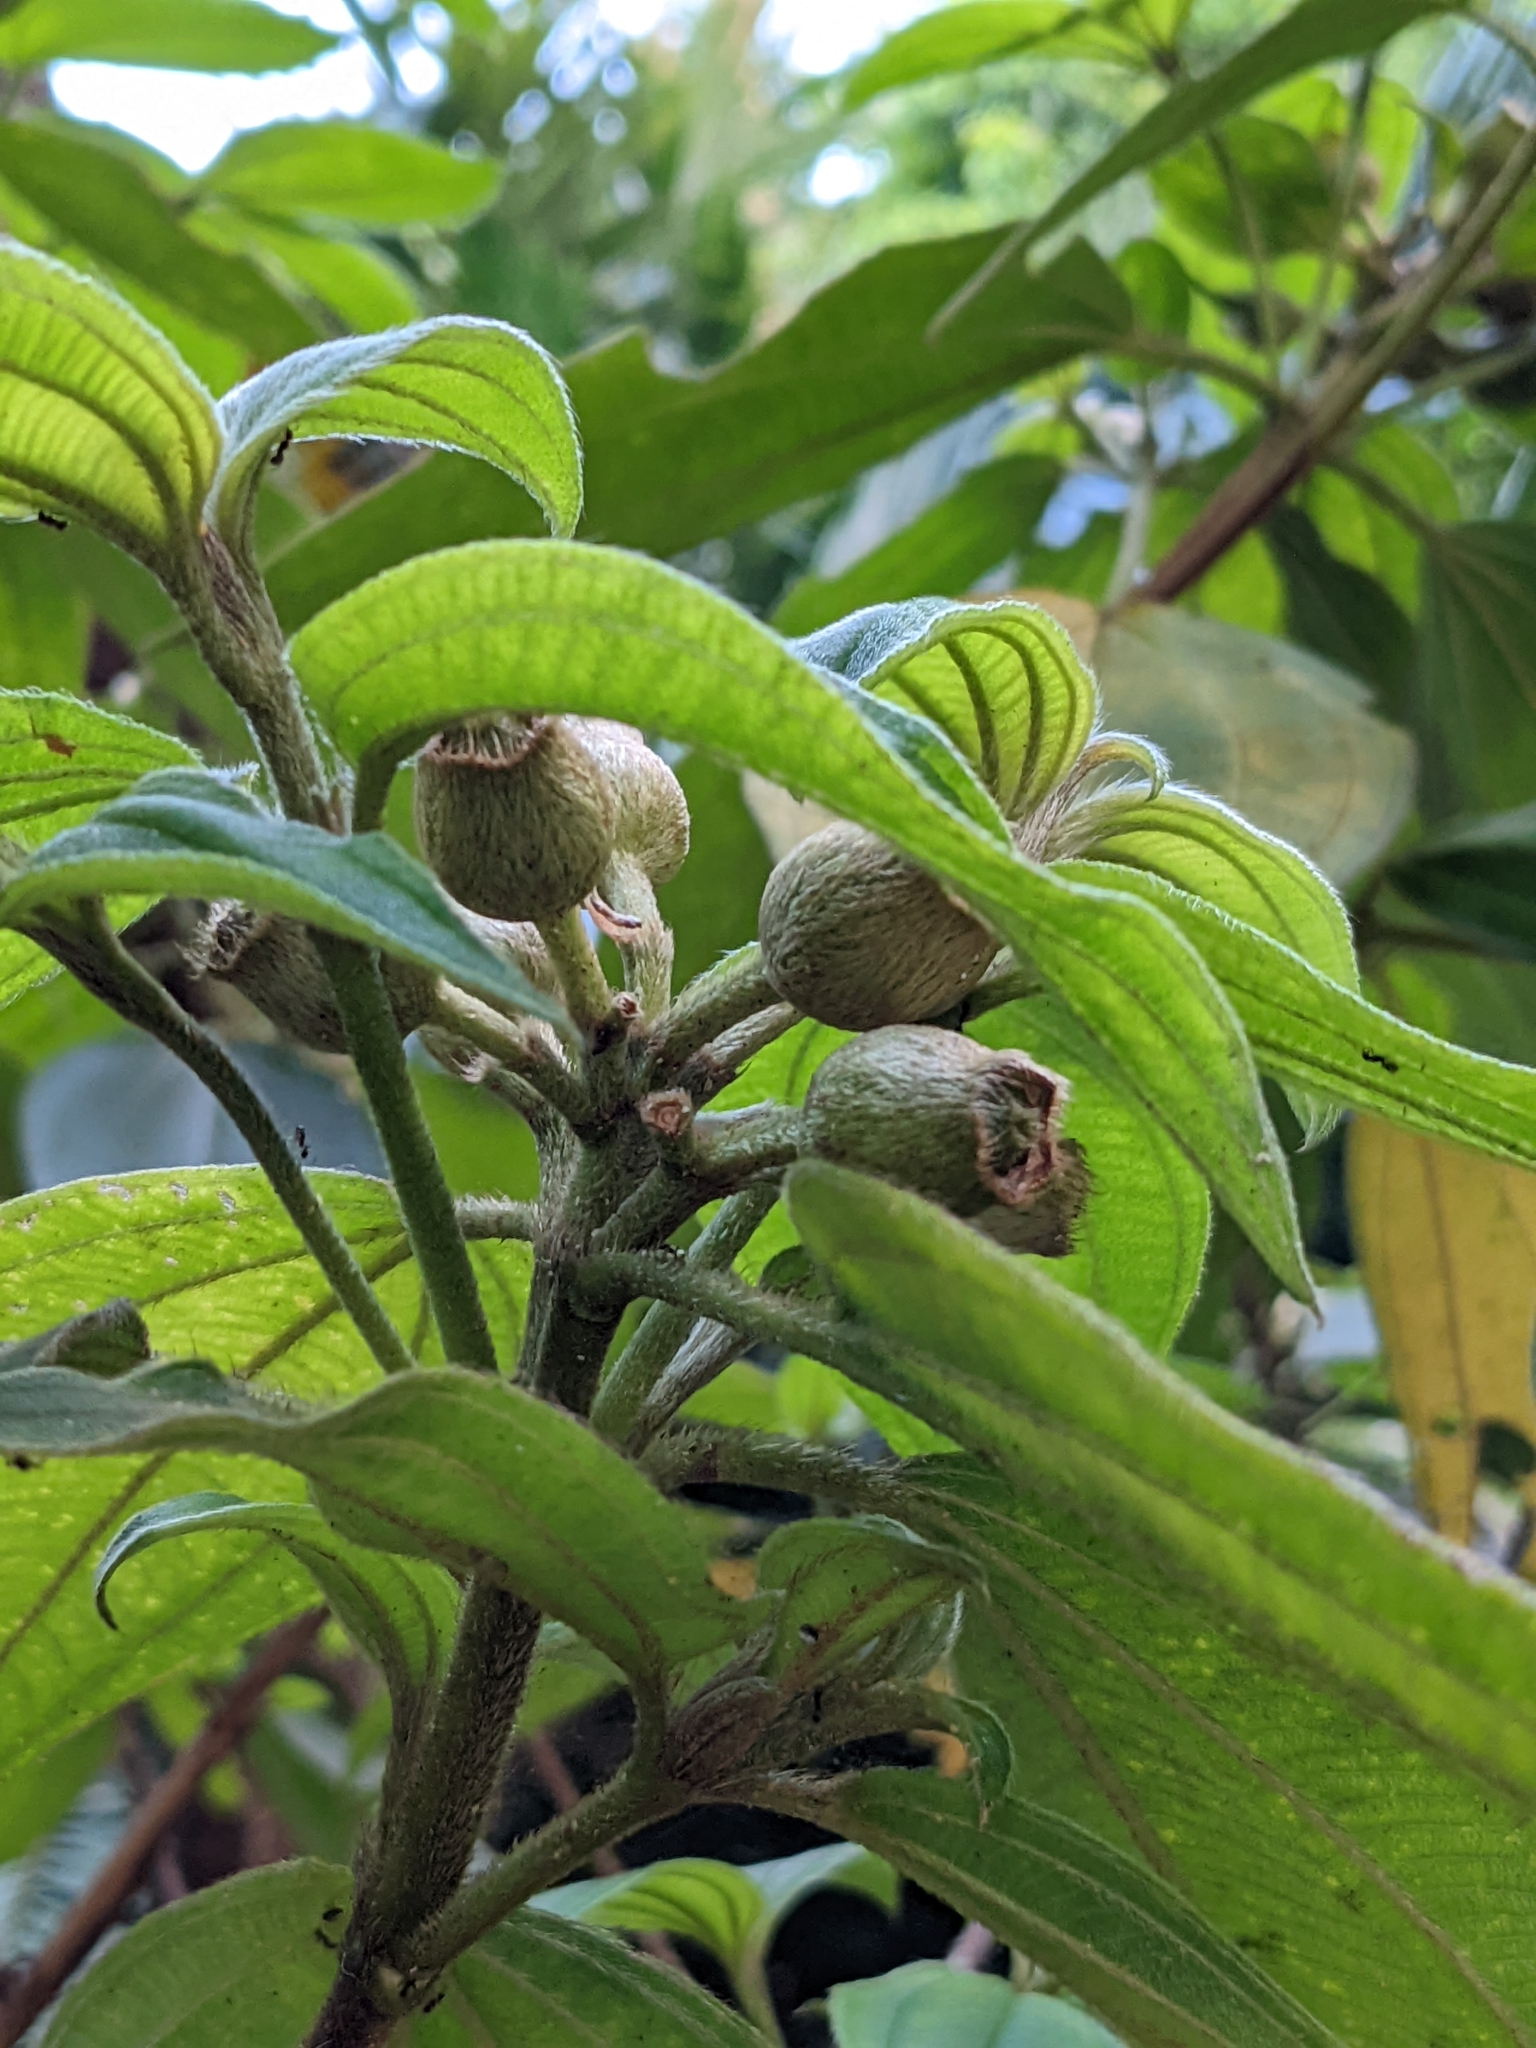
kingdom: Plantae
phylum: Tracheophyta
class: Magnoliopsida
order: Myrtales
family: Melastomataceae
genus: Melastoma
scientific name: Melastoma malabathricum
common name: Indian-rhododendron
